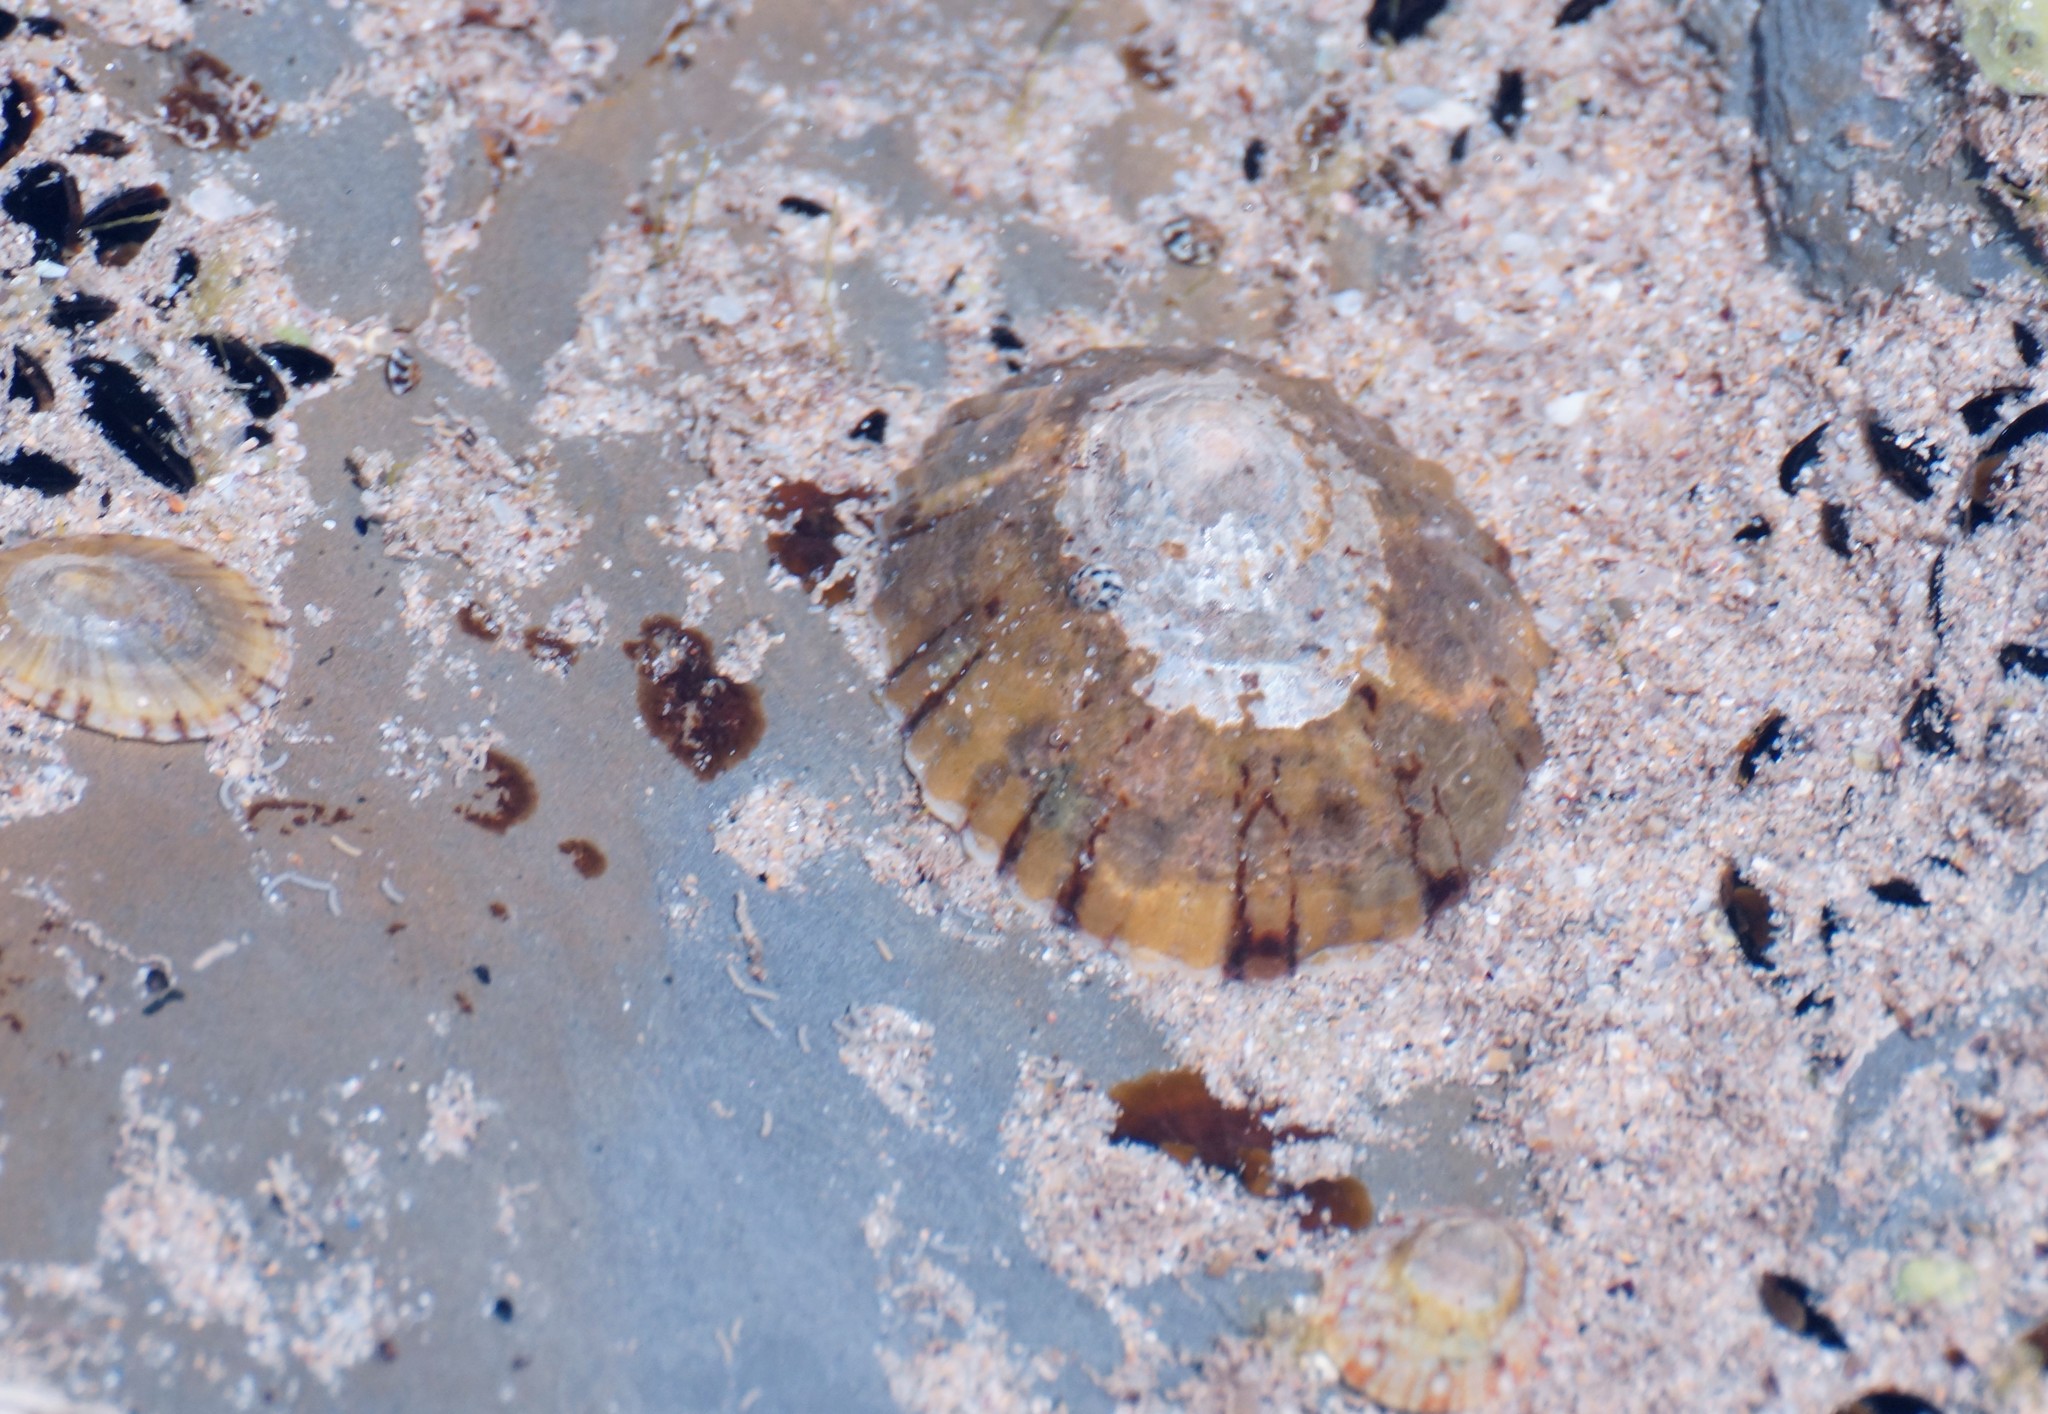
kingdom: Animalia
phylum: Mollusca
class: Gastropoda
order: Trochida
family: Turbinidae
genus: Lunella
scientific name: Lunella undulata
